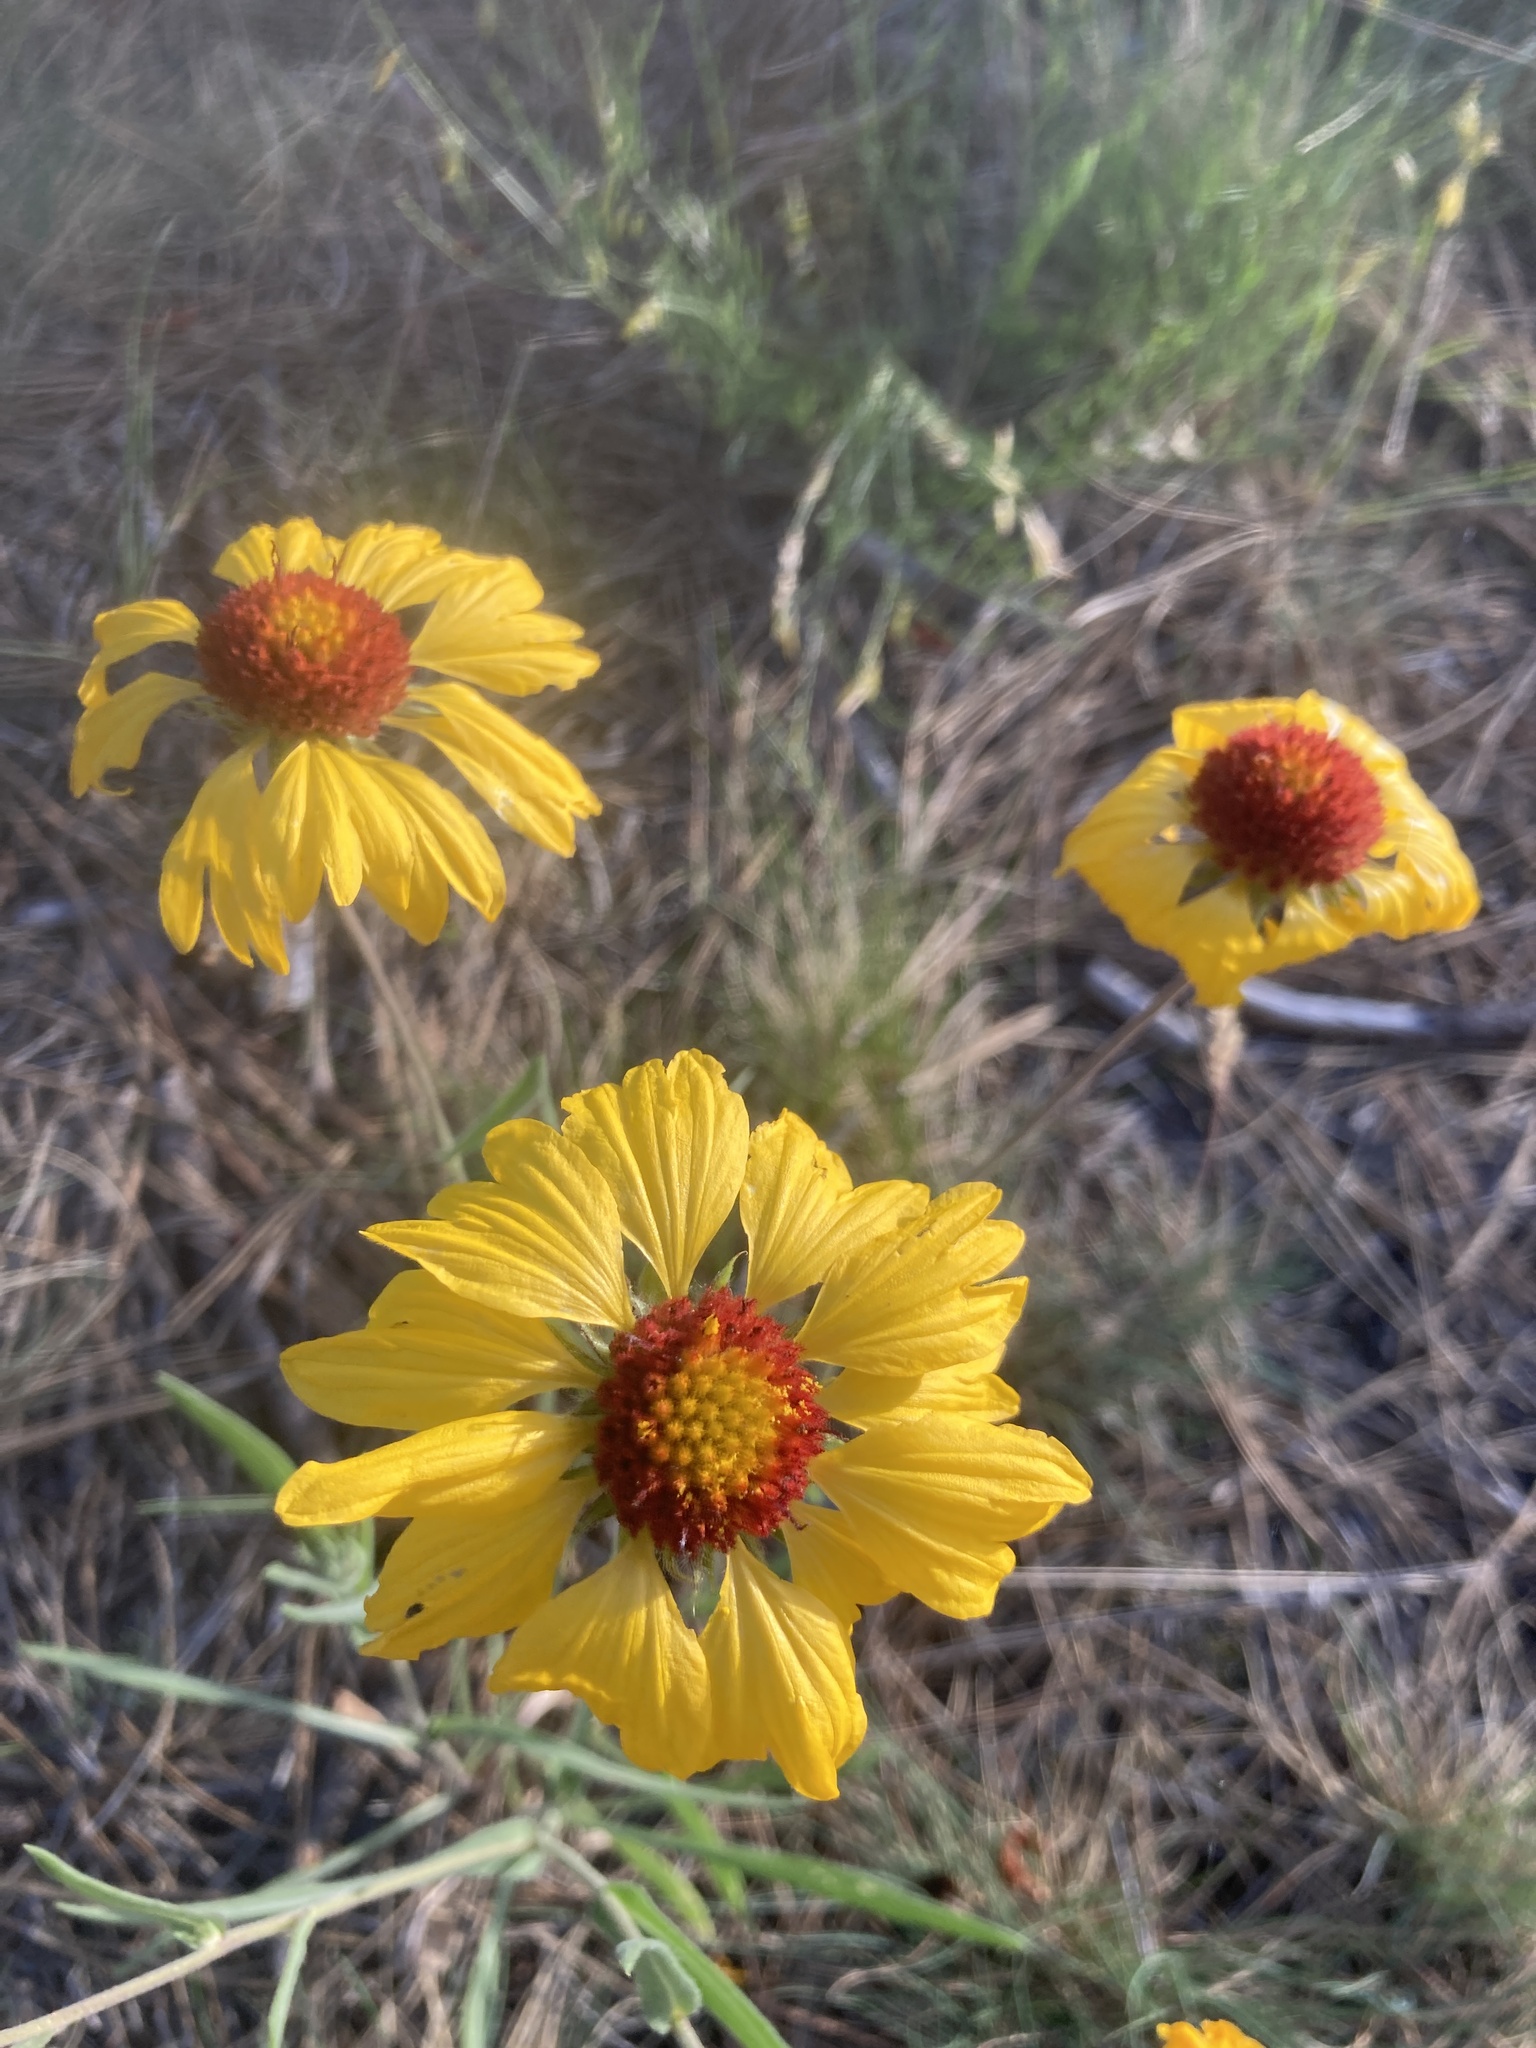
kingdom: Plantae
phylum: Tracheophyta
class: Magnoliopsida
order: Asterales
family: Asteraceae
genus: Gaillardia
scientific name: Gaillardia aristata
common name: Blanket-flower
